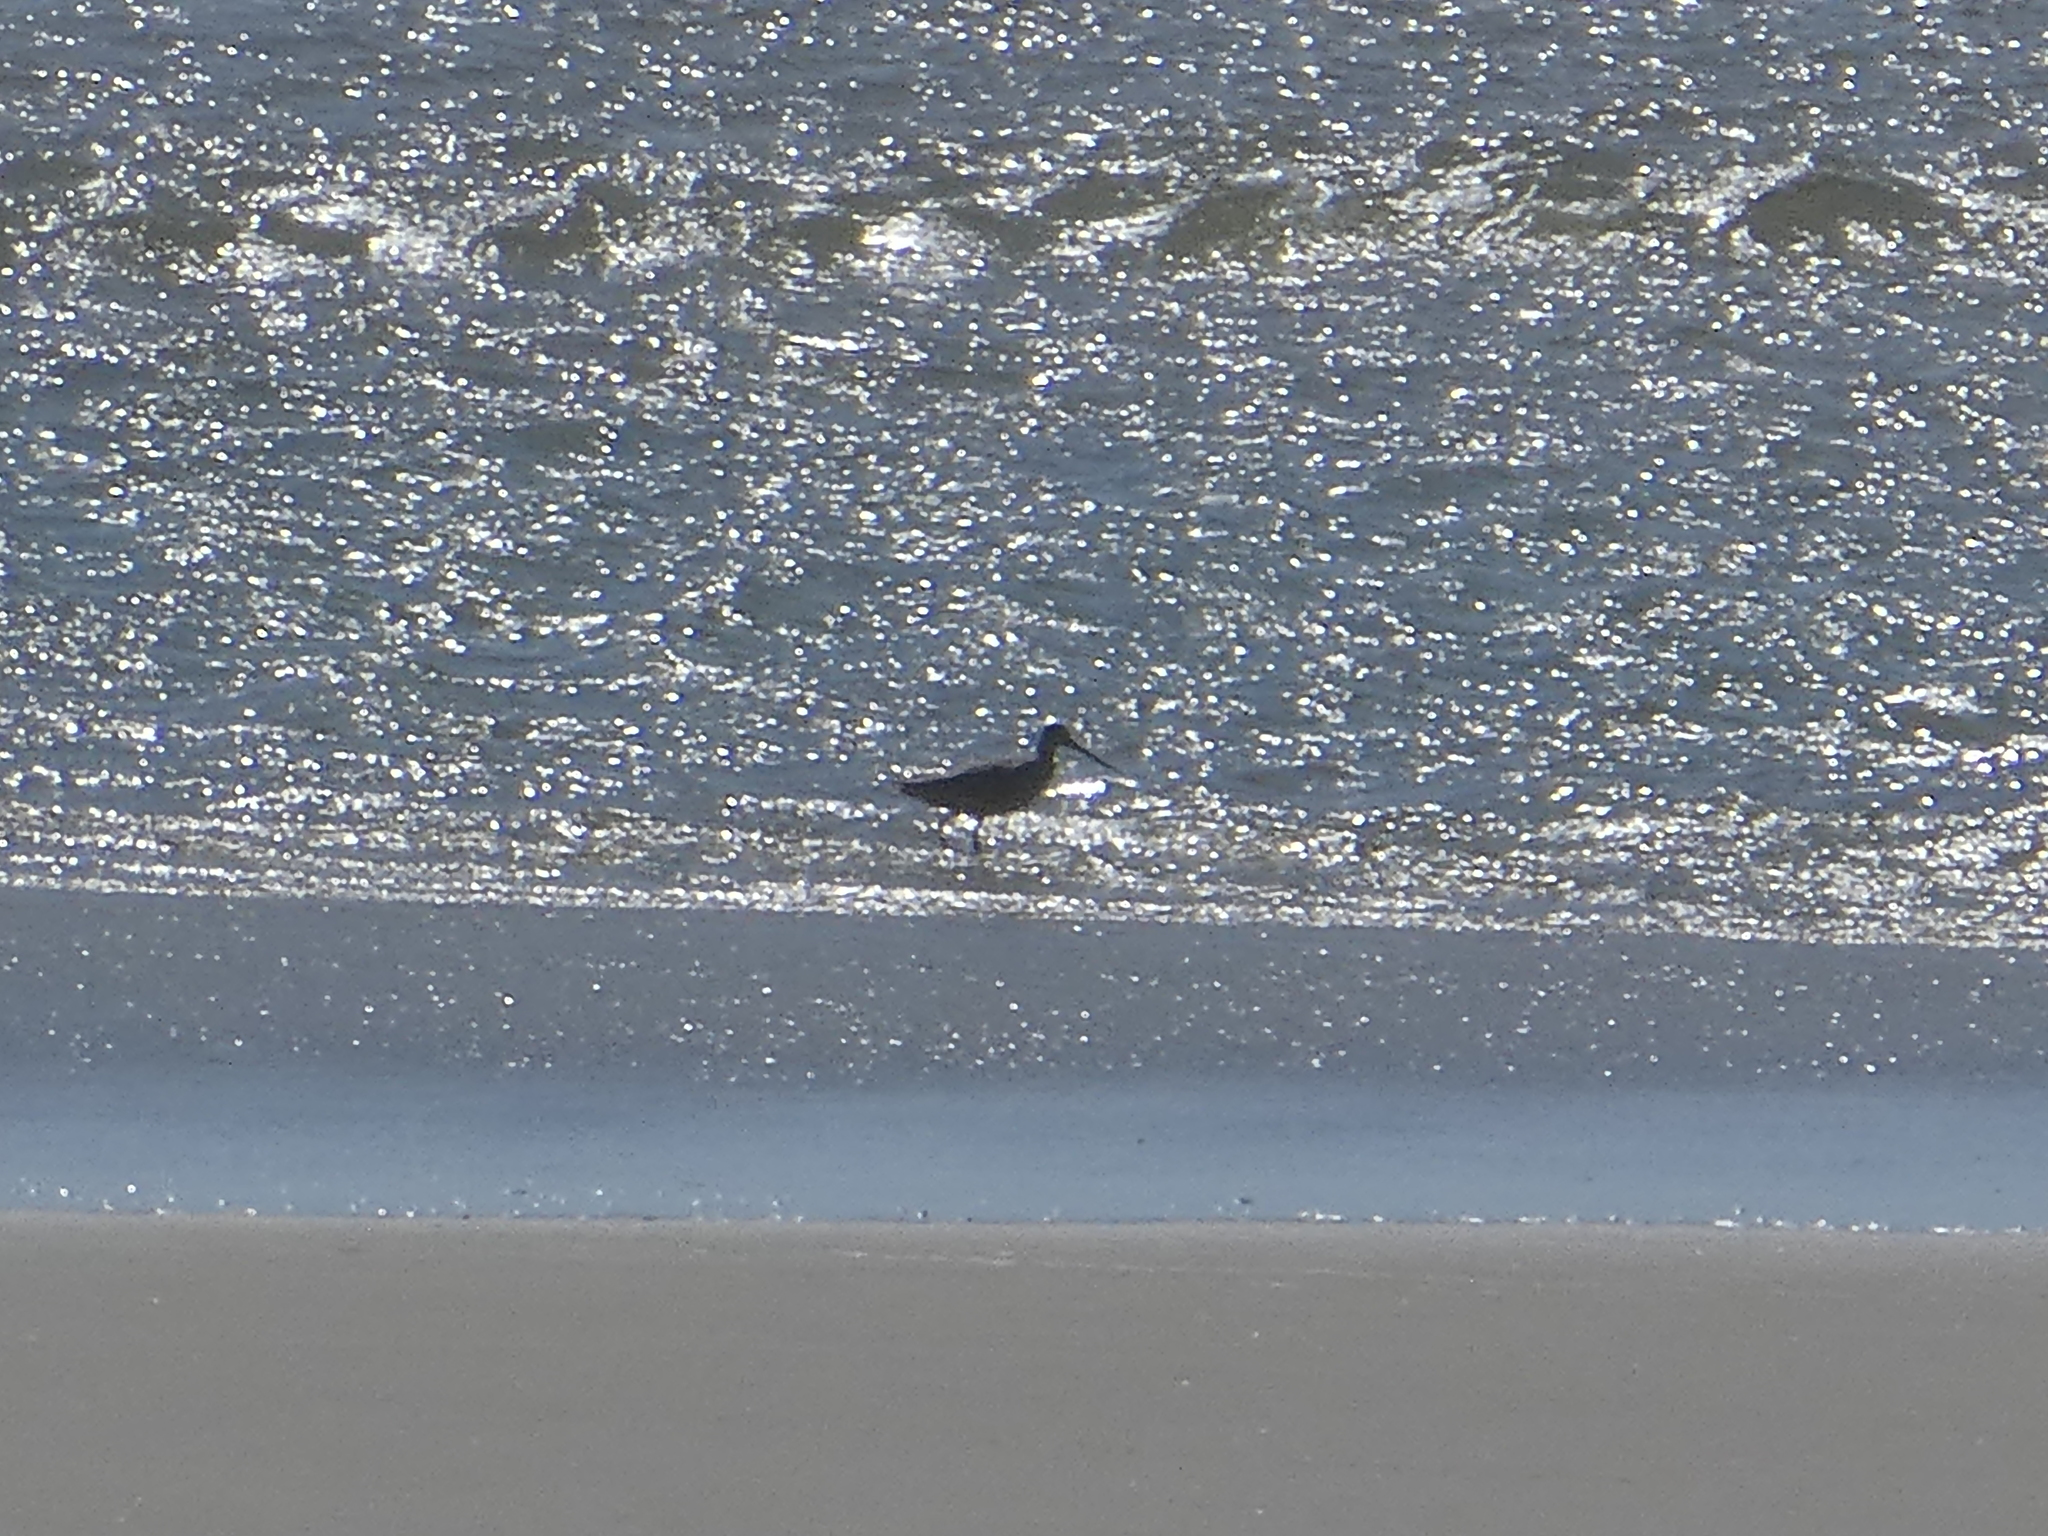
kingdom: Animalia
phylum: Chordata
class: Aves
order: Charadriiformes
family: Scolopacidae
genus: Limosa
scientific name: Limosa fedoa
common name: Marbled godwit
